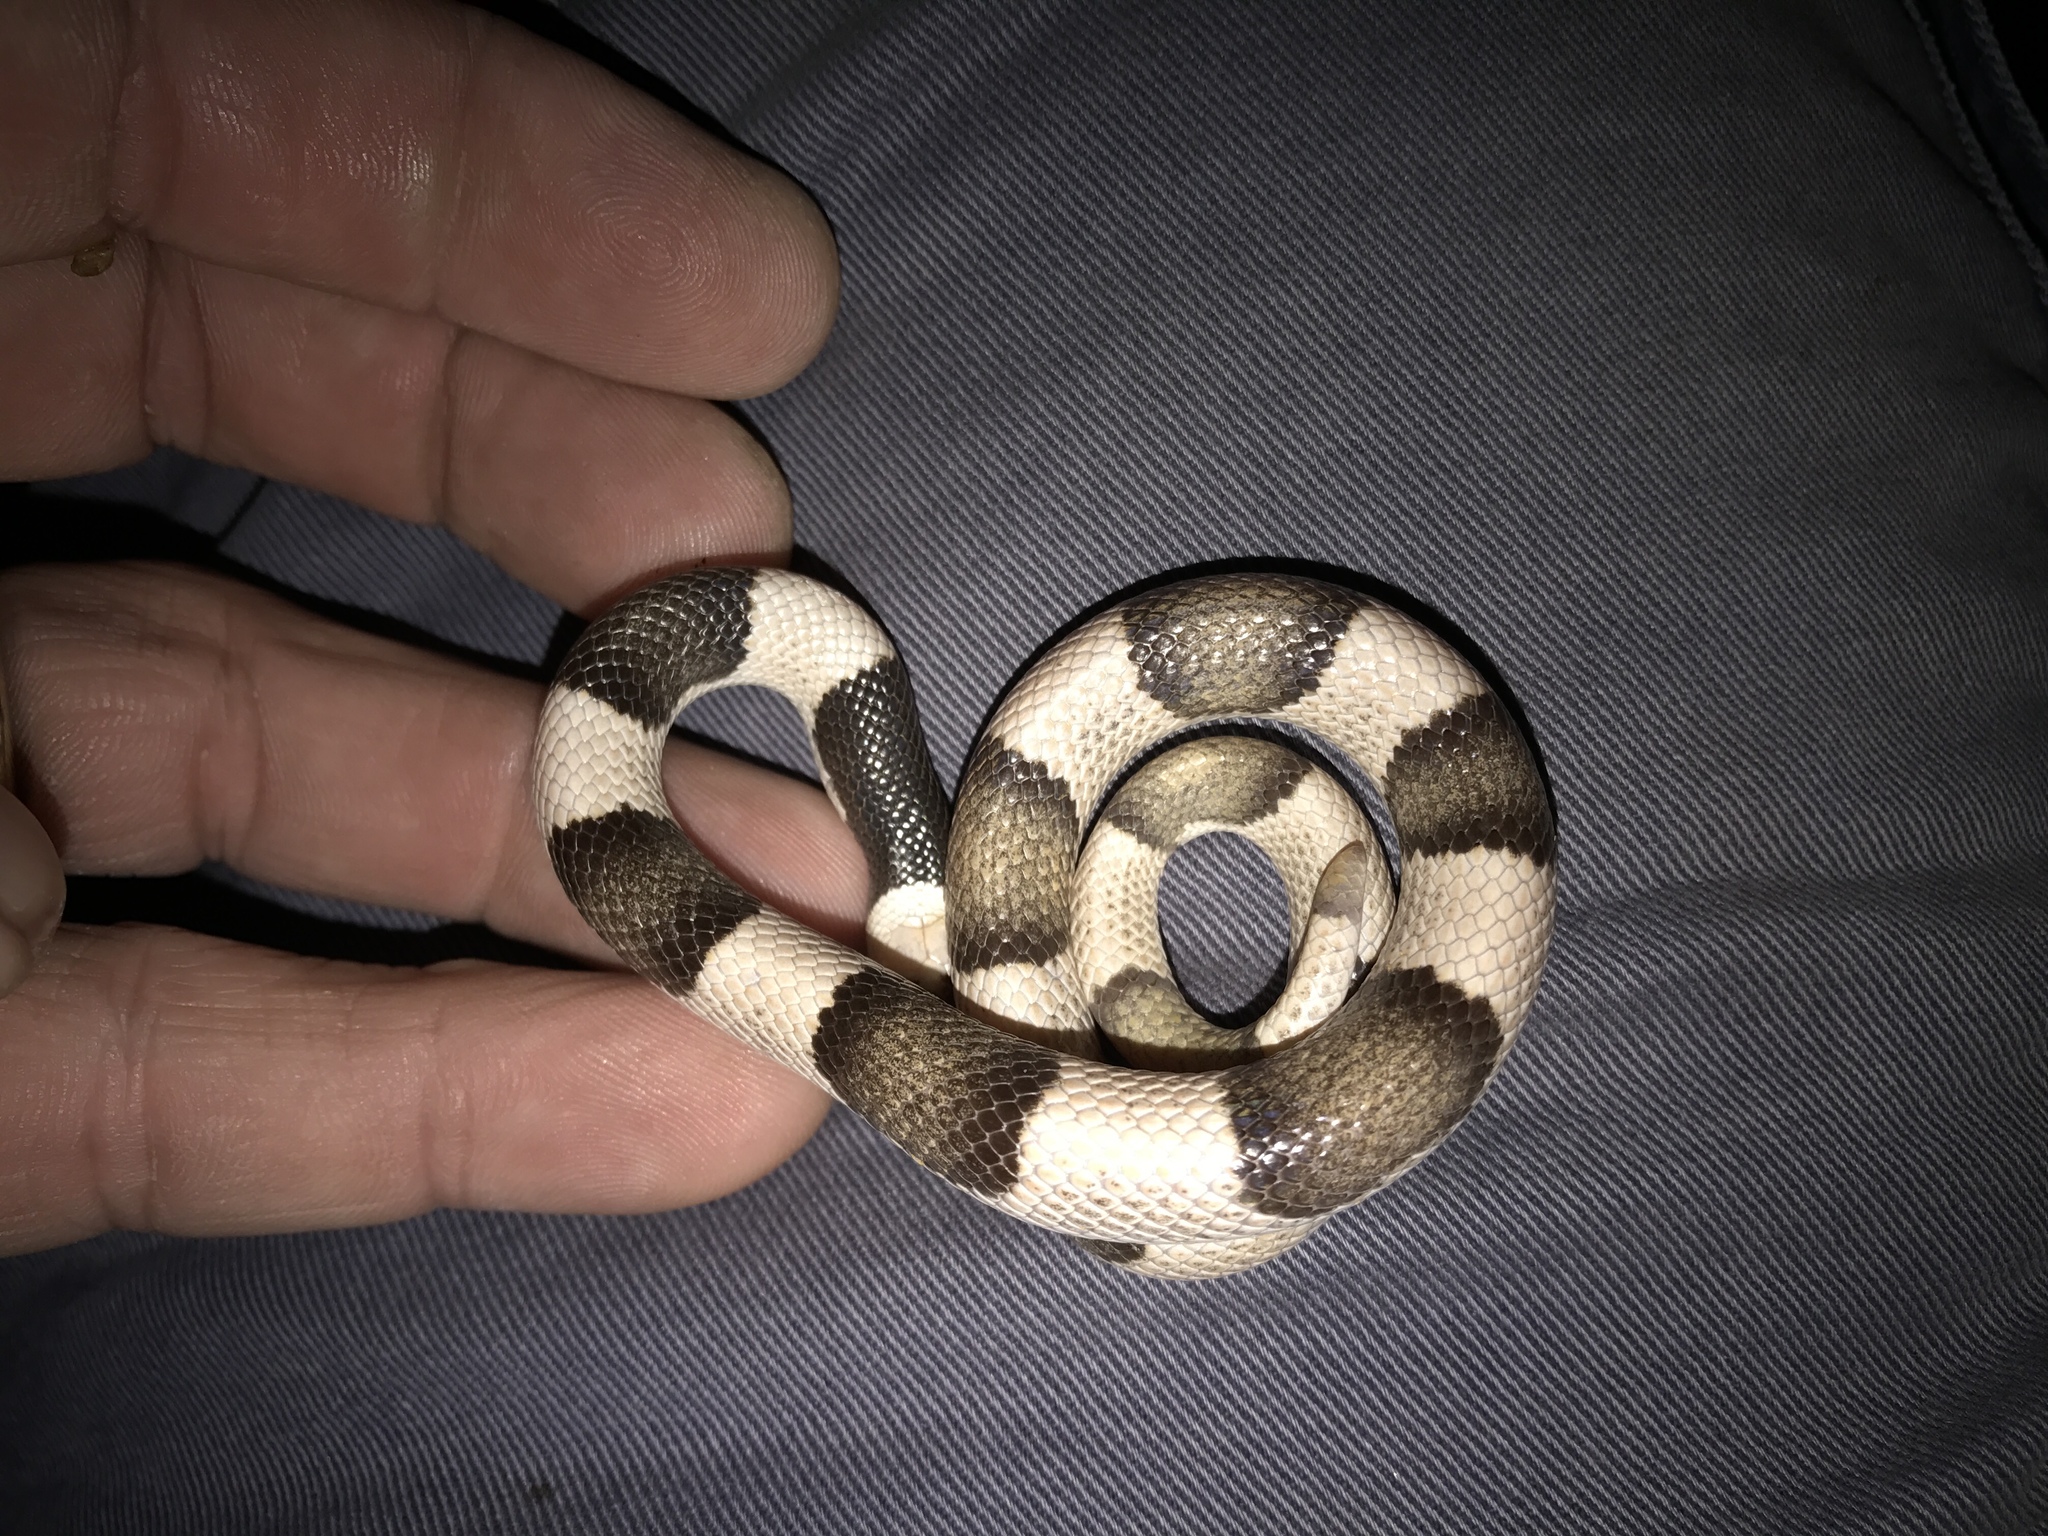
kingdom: Animalia
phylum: Chordata
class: Squamata
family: Colubridae
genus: Phyllorhynchus
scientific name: Phyllorhynchus browni
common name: Saddled leafnose snake
